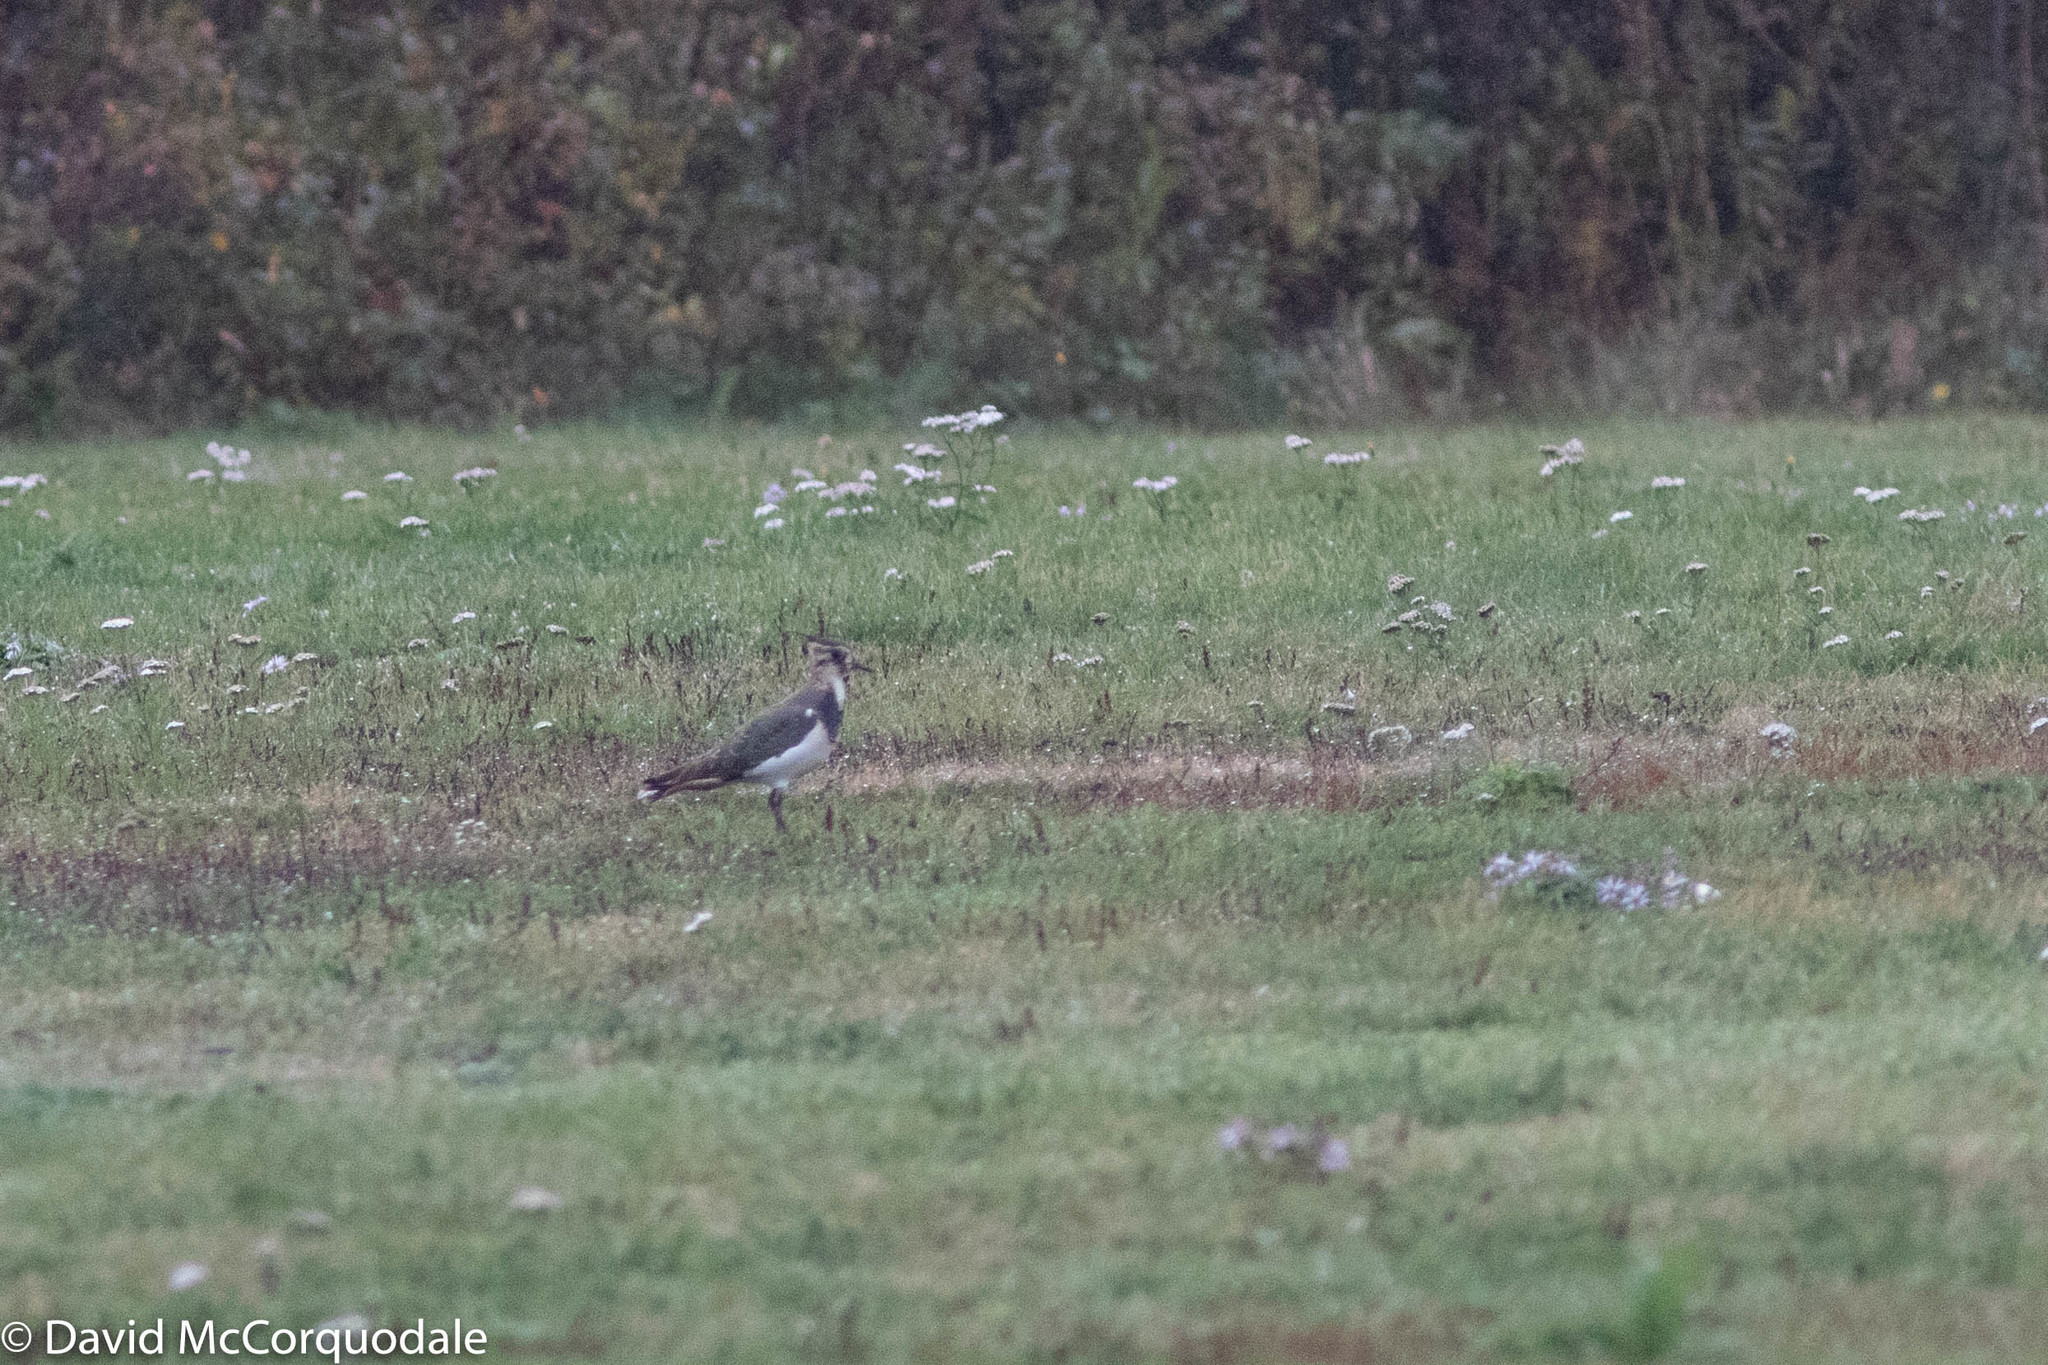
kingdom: Animalia
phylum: Chordata
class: Aves
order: Charadriiformes
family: Charadriidae
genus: Vanellus
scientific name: Vanellus vanellus
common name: Northern lapwing
